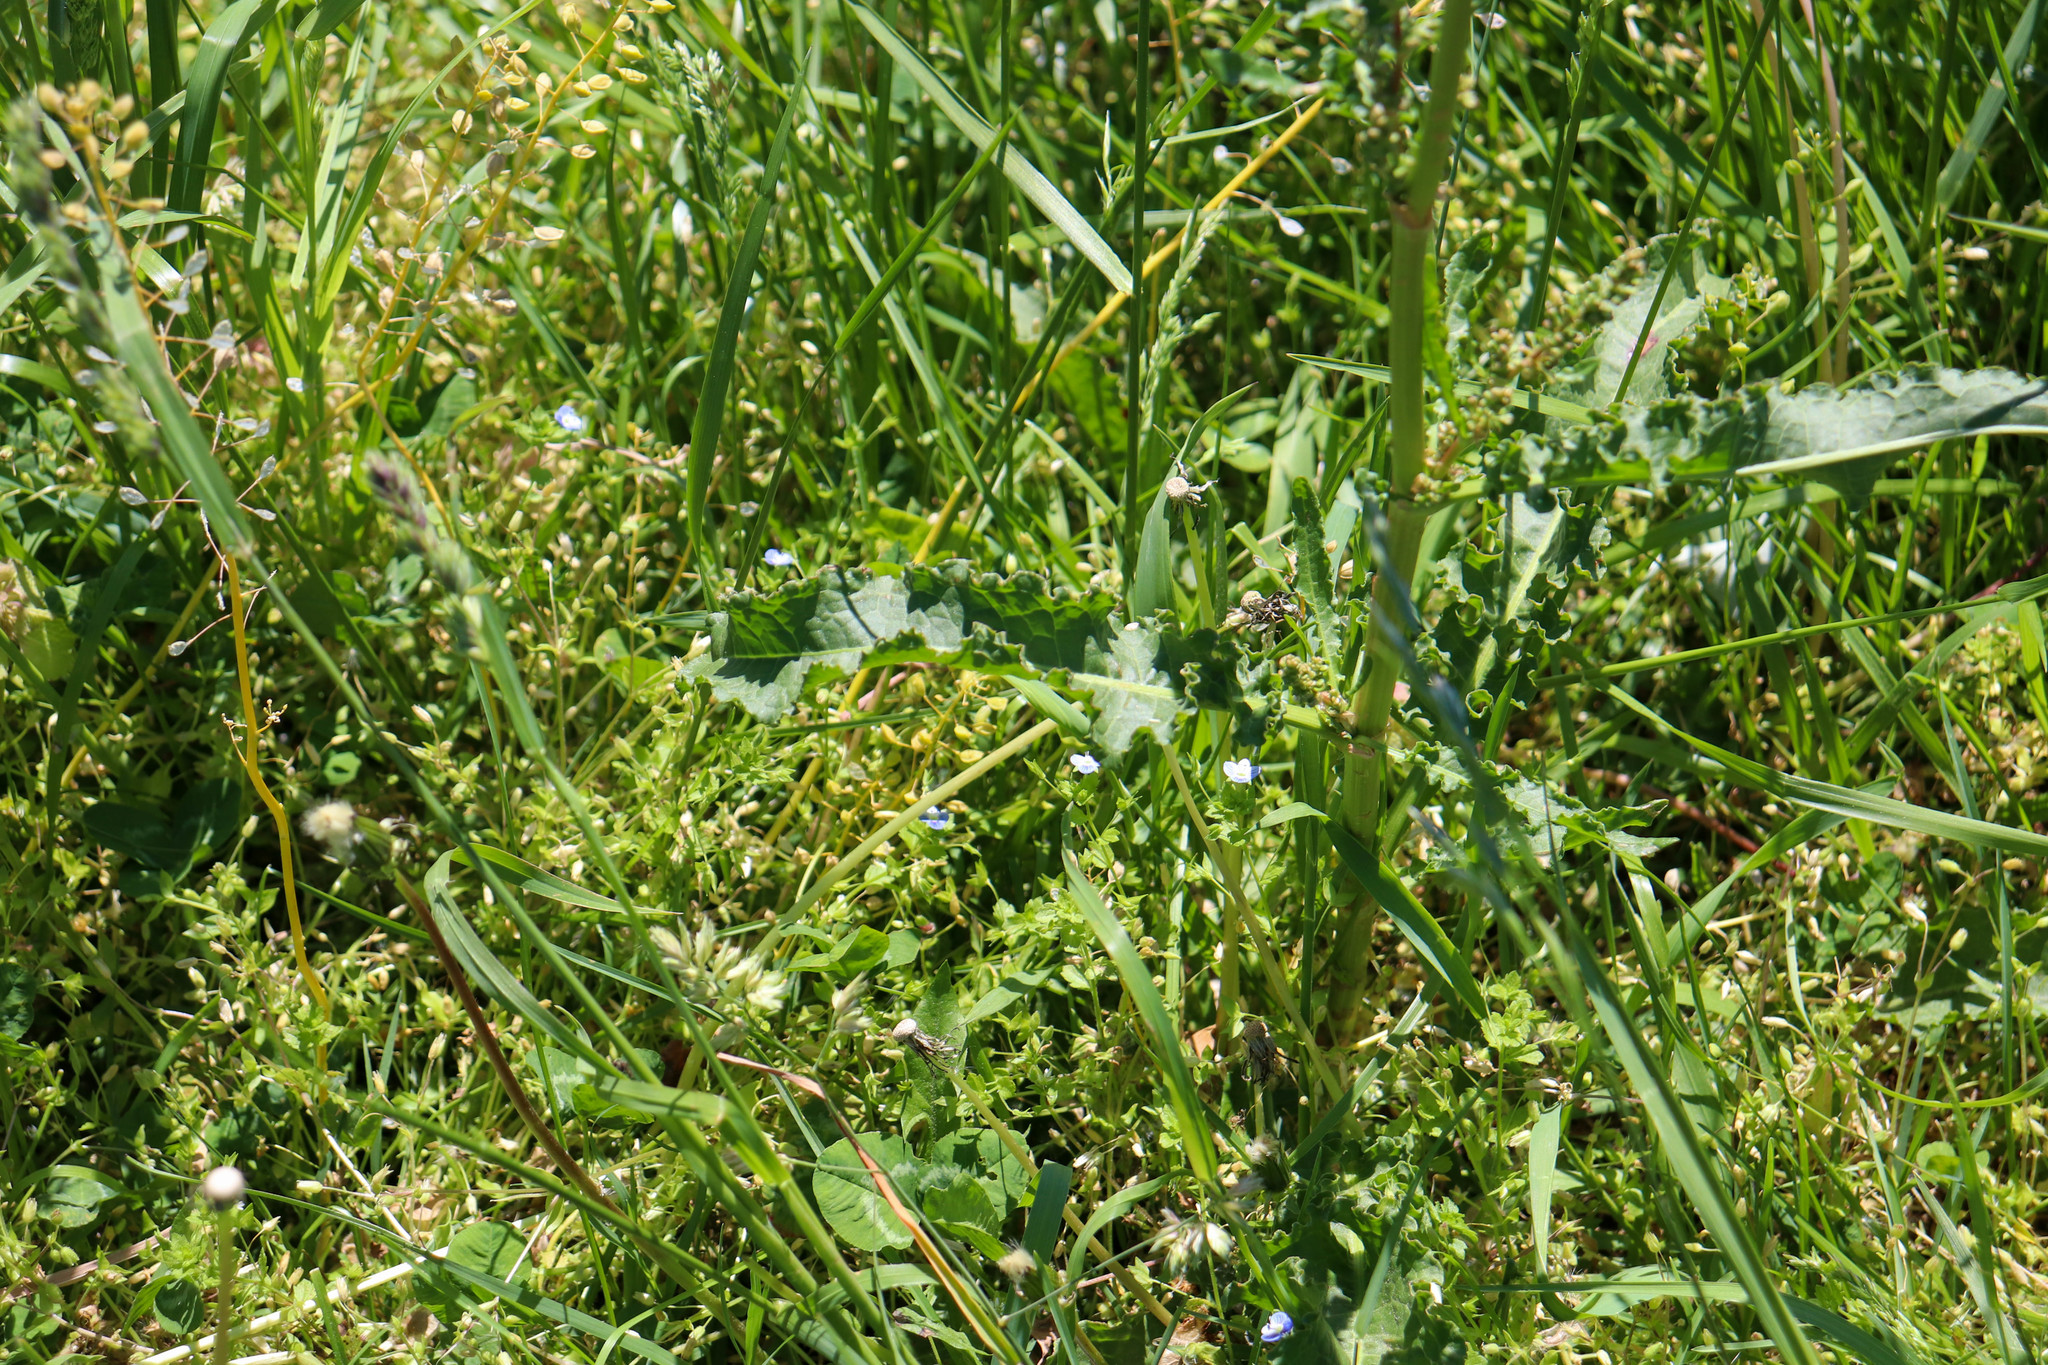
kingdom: Plantae
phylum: Tracheophyta
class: Magnoliopsida
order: Caryophyllales
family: Polygonaceae
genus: Rumex
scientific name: Rumex crispus
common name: Curled dock
